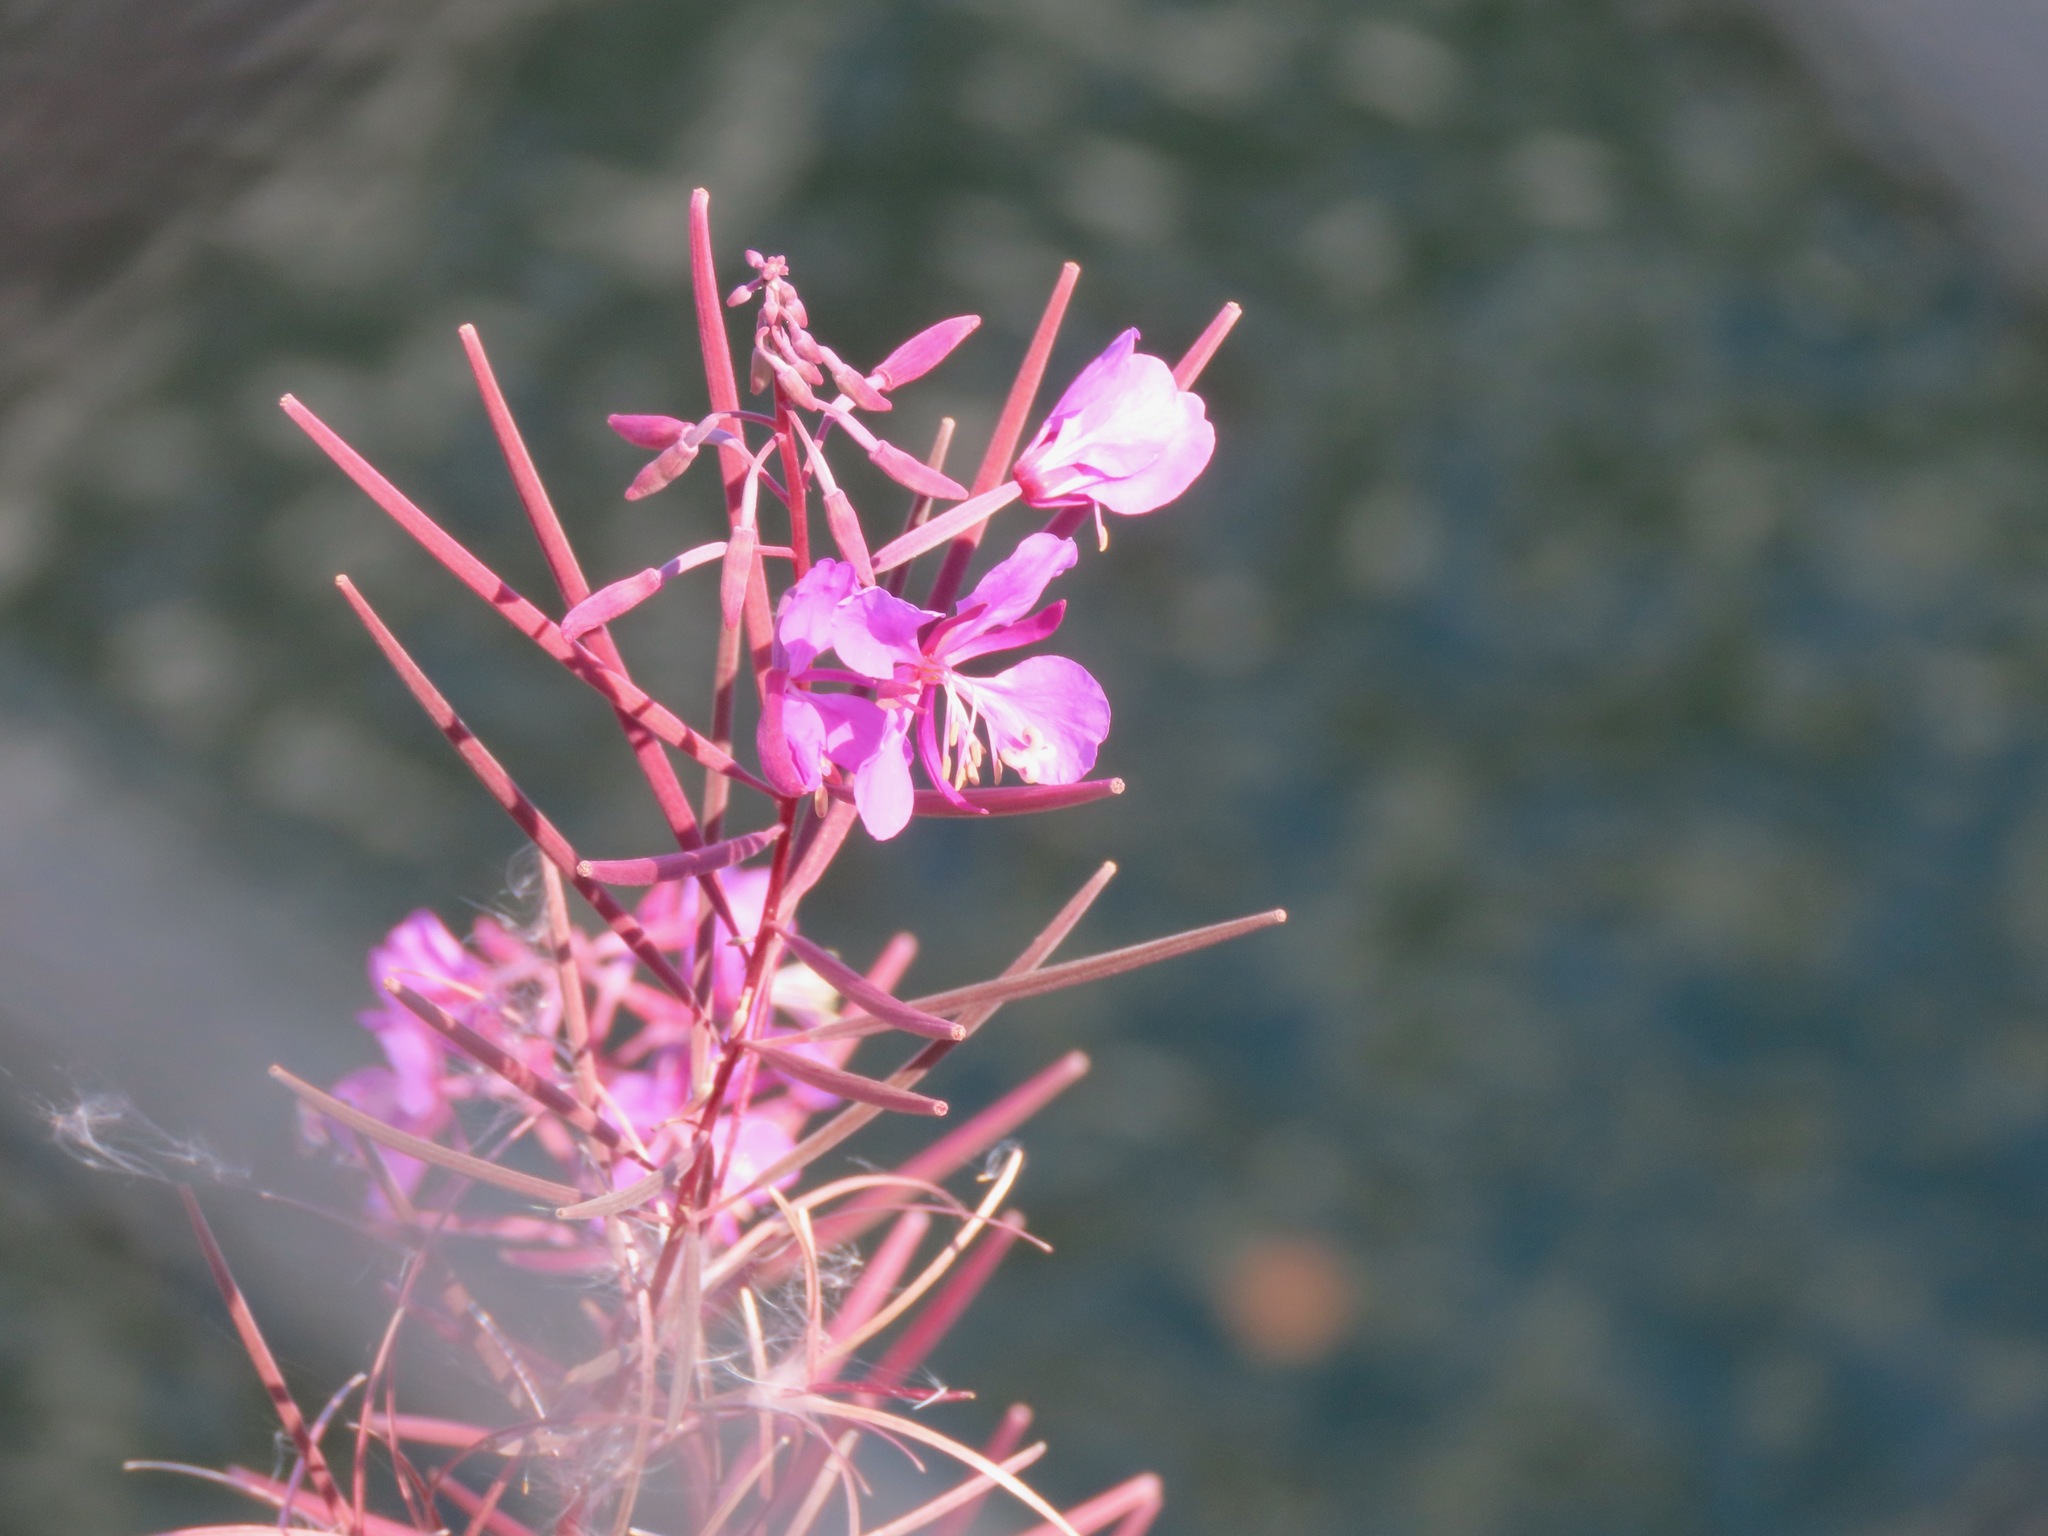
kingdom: Plantae
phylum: Tracheophyta
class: Magnoliopsida
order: Myrtales
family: Onagraceae
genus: Chamaenerion
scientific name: Chamaenerion angustifolium
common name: Fireweed
